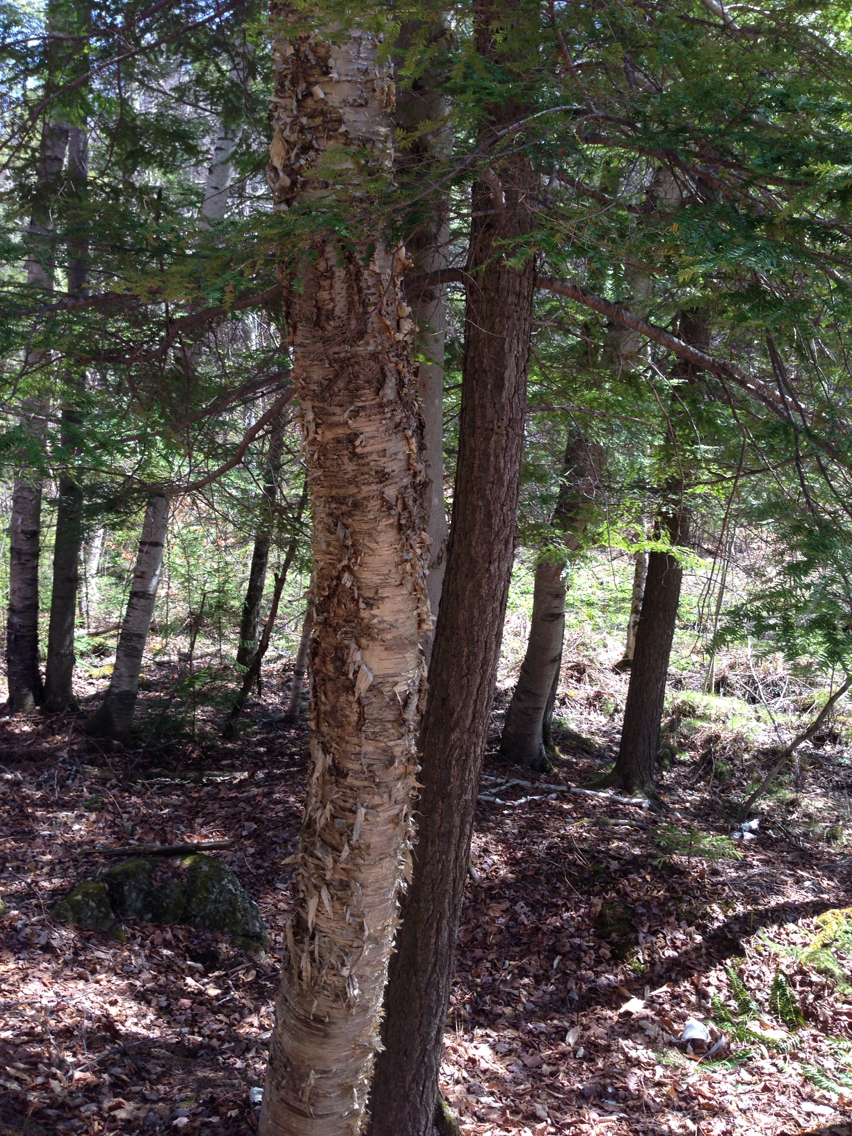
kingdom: Plantae
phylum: Tracheophyta
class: Magnoliopsida
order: Fagales
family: Betulaceae
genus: Betula
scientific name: Betula alleghaniensis
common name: Yellow birch
